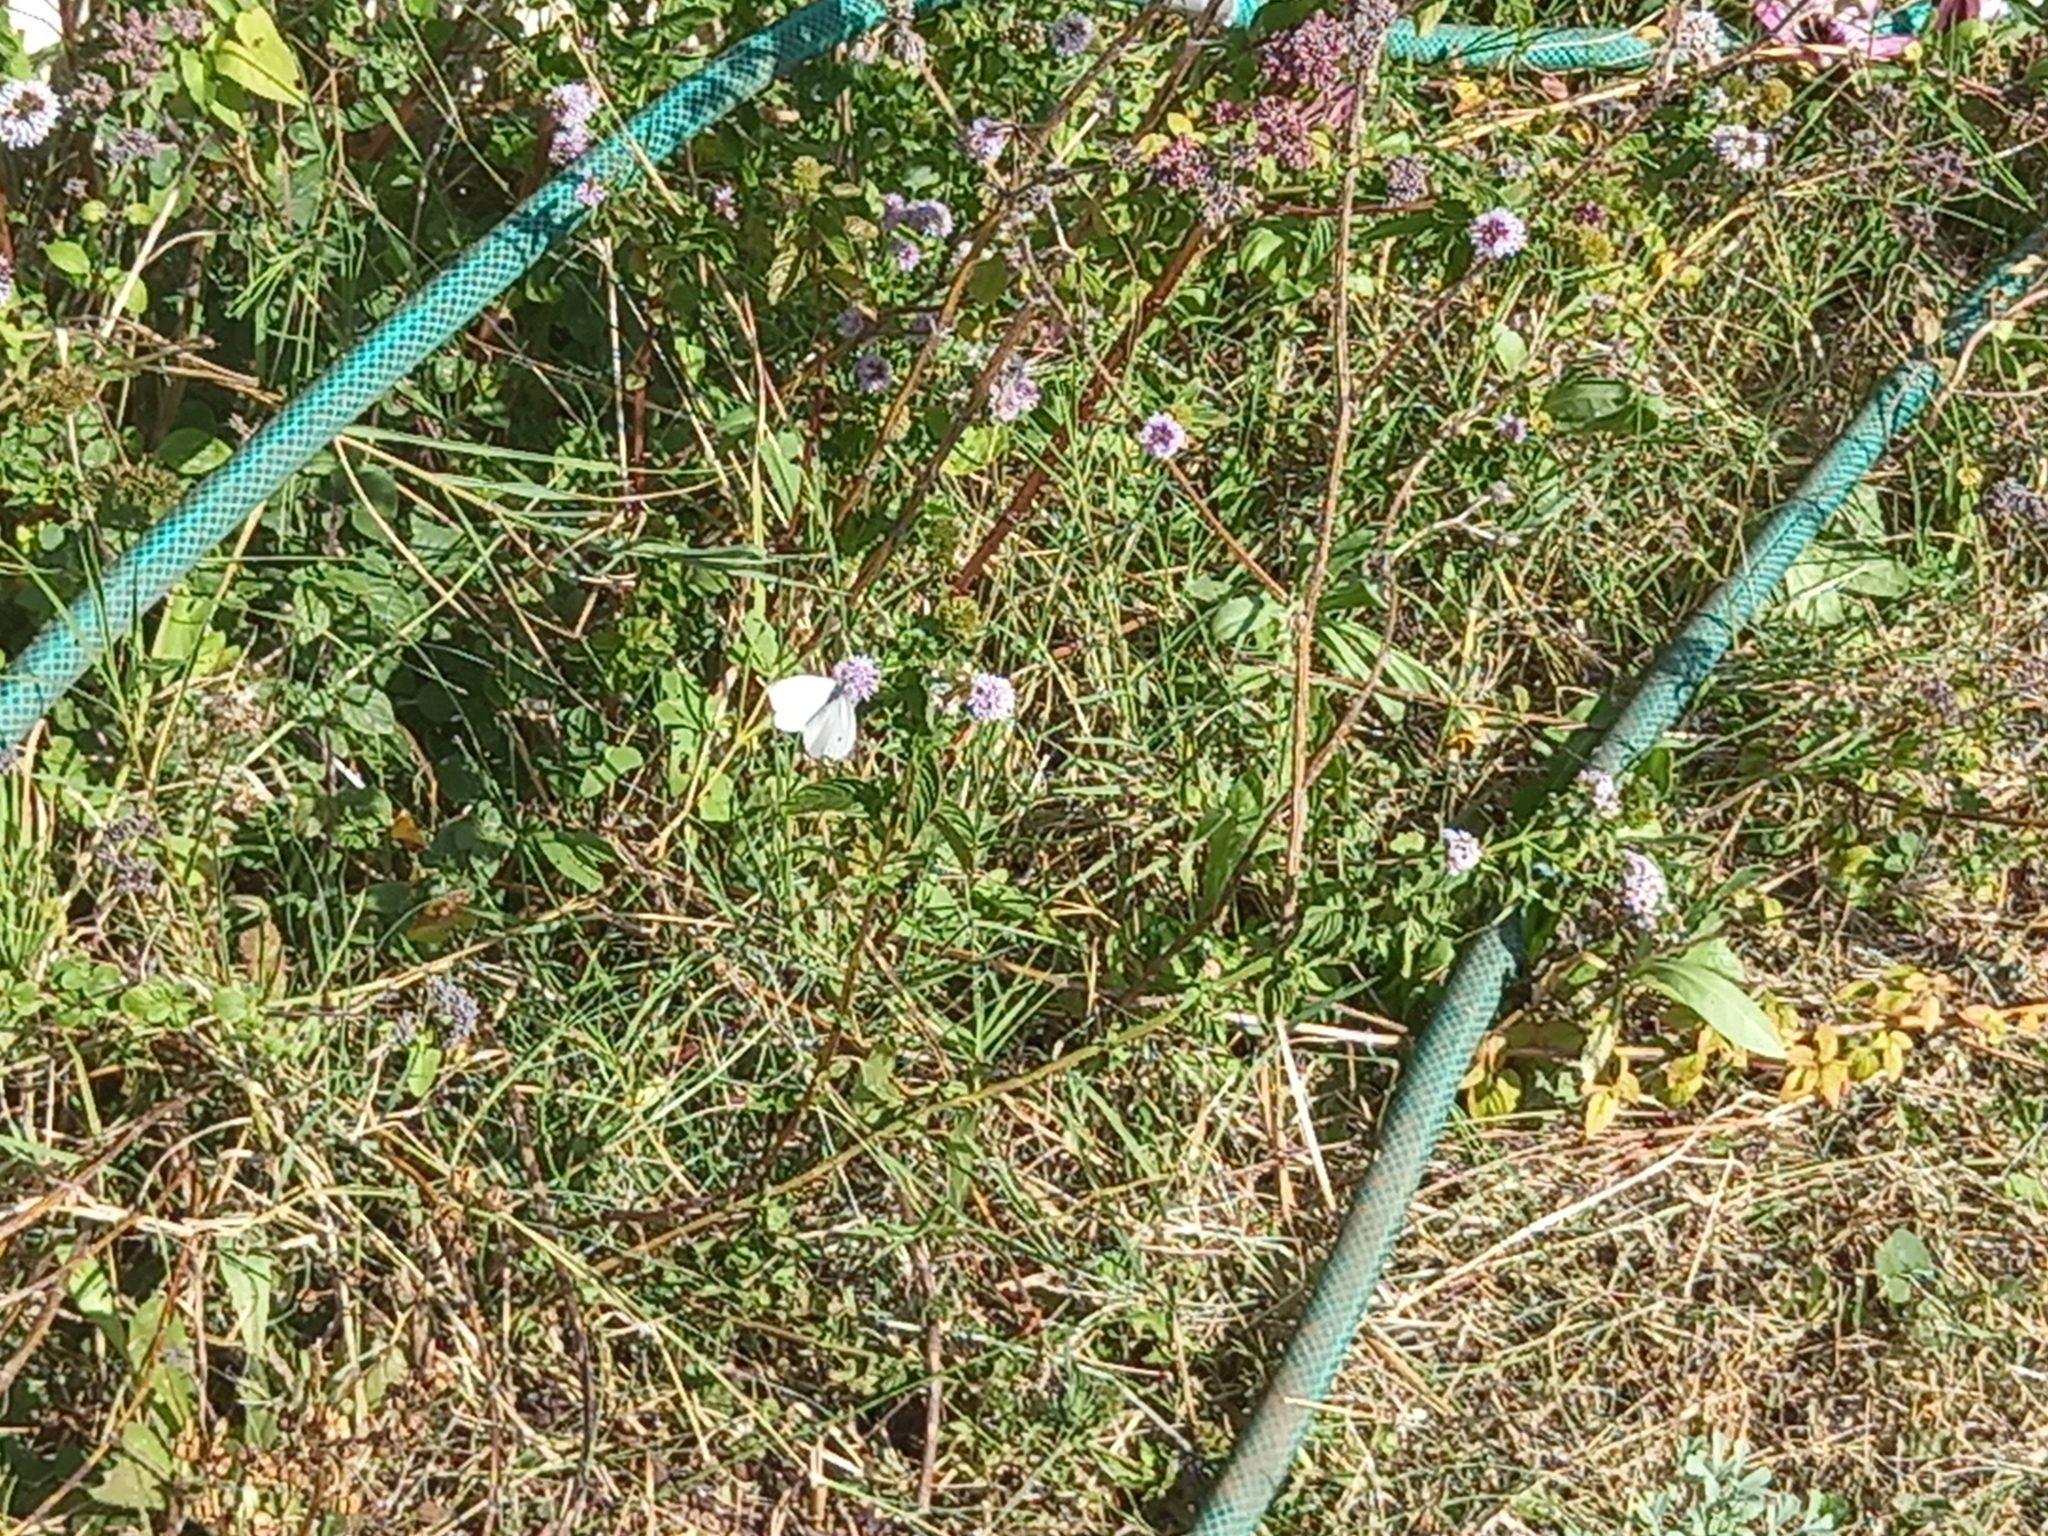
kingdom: Animalia
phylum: Arthropoda
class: Insecta
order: Lepidoptera
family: Pieridae
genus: Pieris
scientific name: Pieris rapae
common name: Small white
